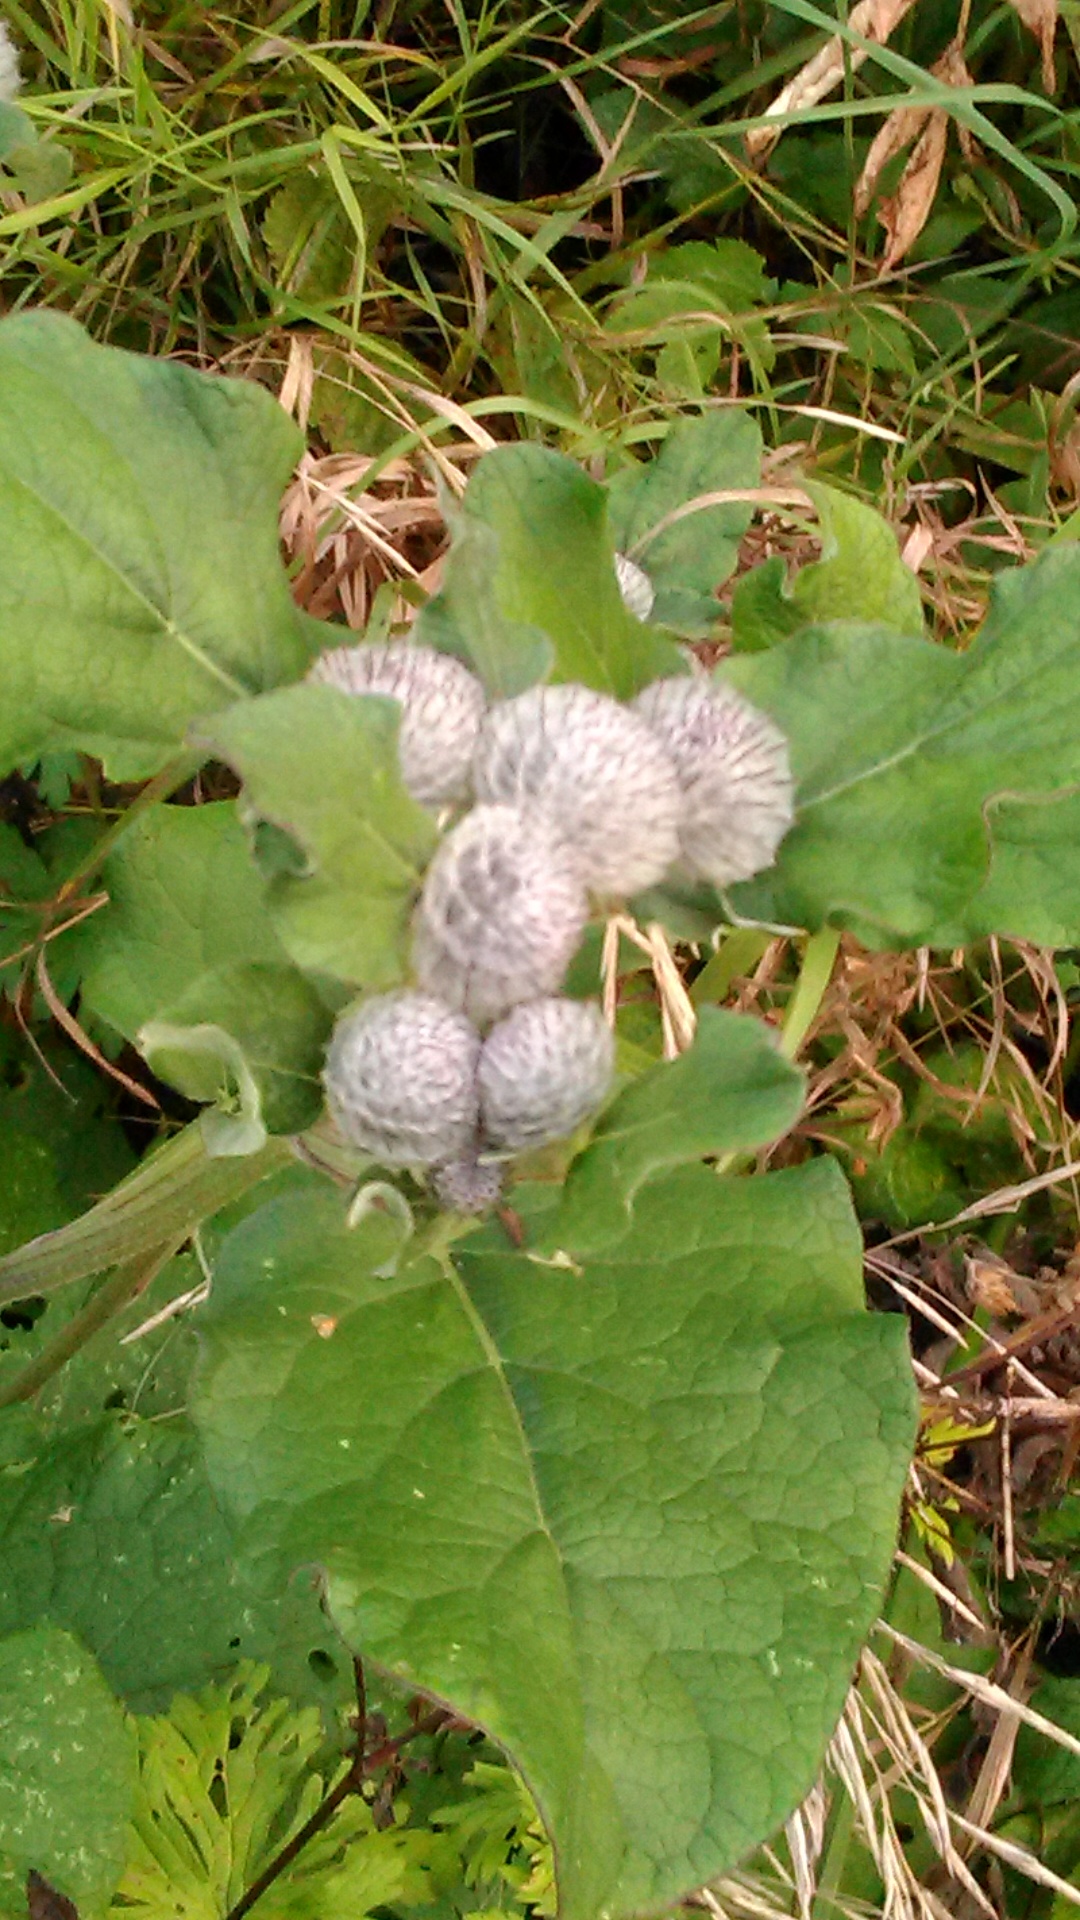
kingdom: Plantae
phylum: Tracheophyta
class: Magnoliopsida
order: Asterales
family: Asteraceae
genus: Arctium
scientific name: Arctium tomentosum
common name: Woolly burdock
